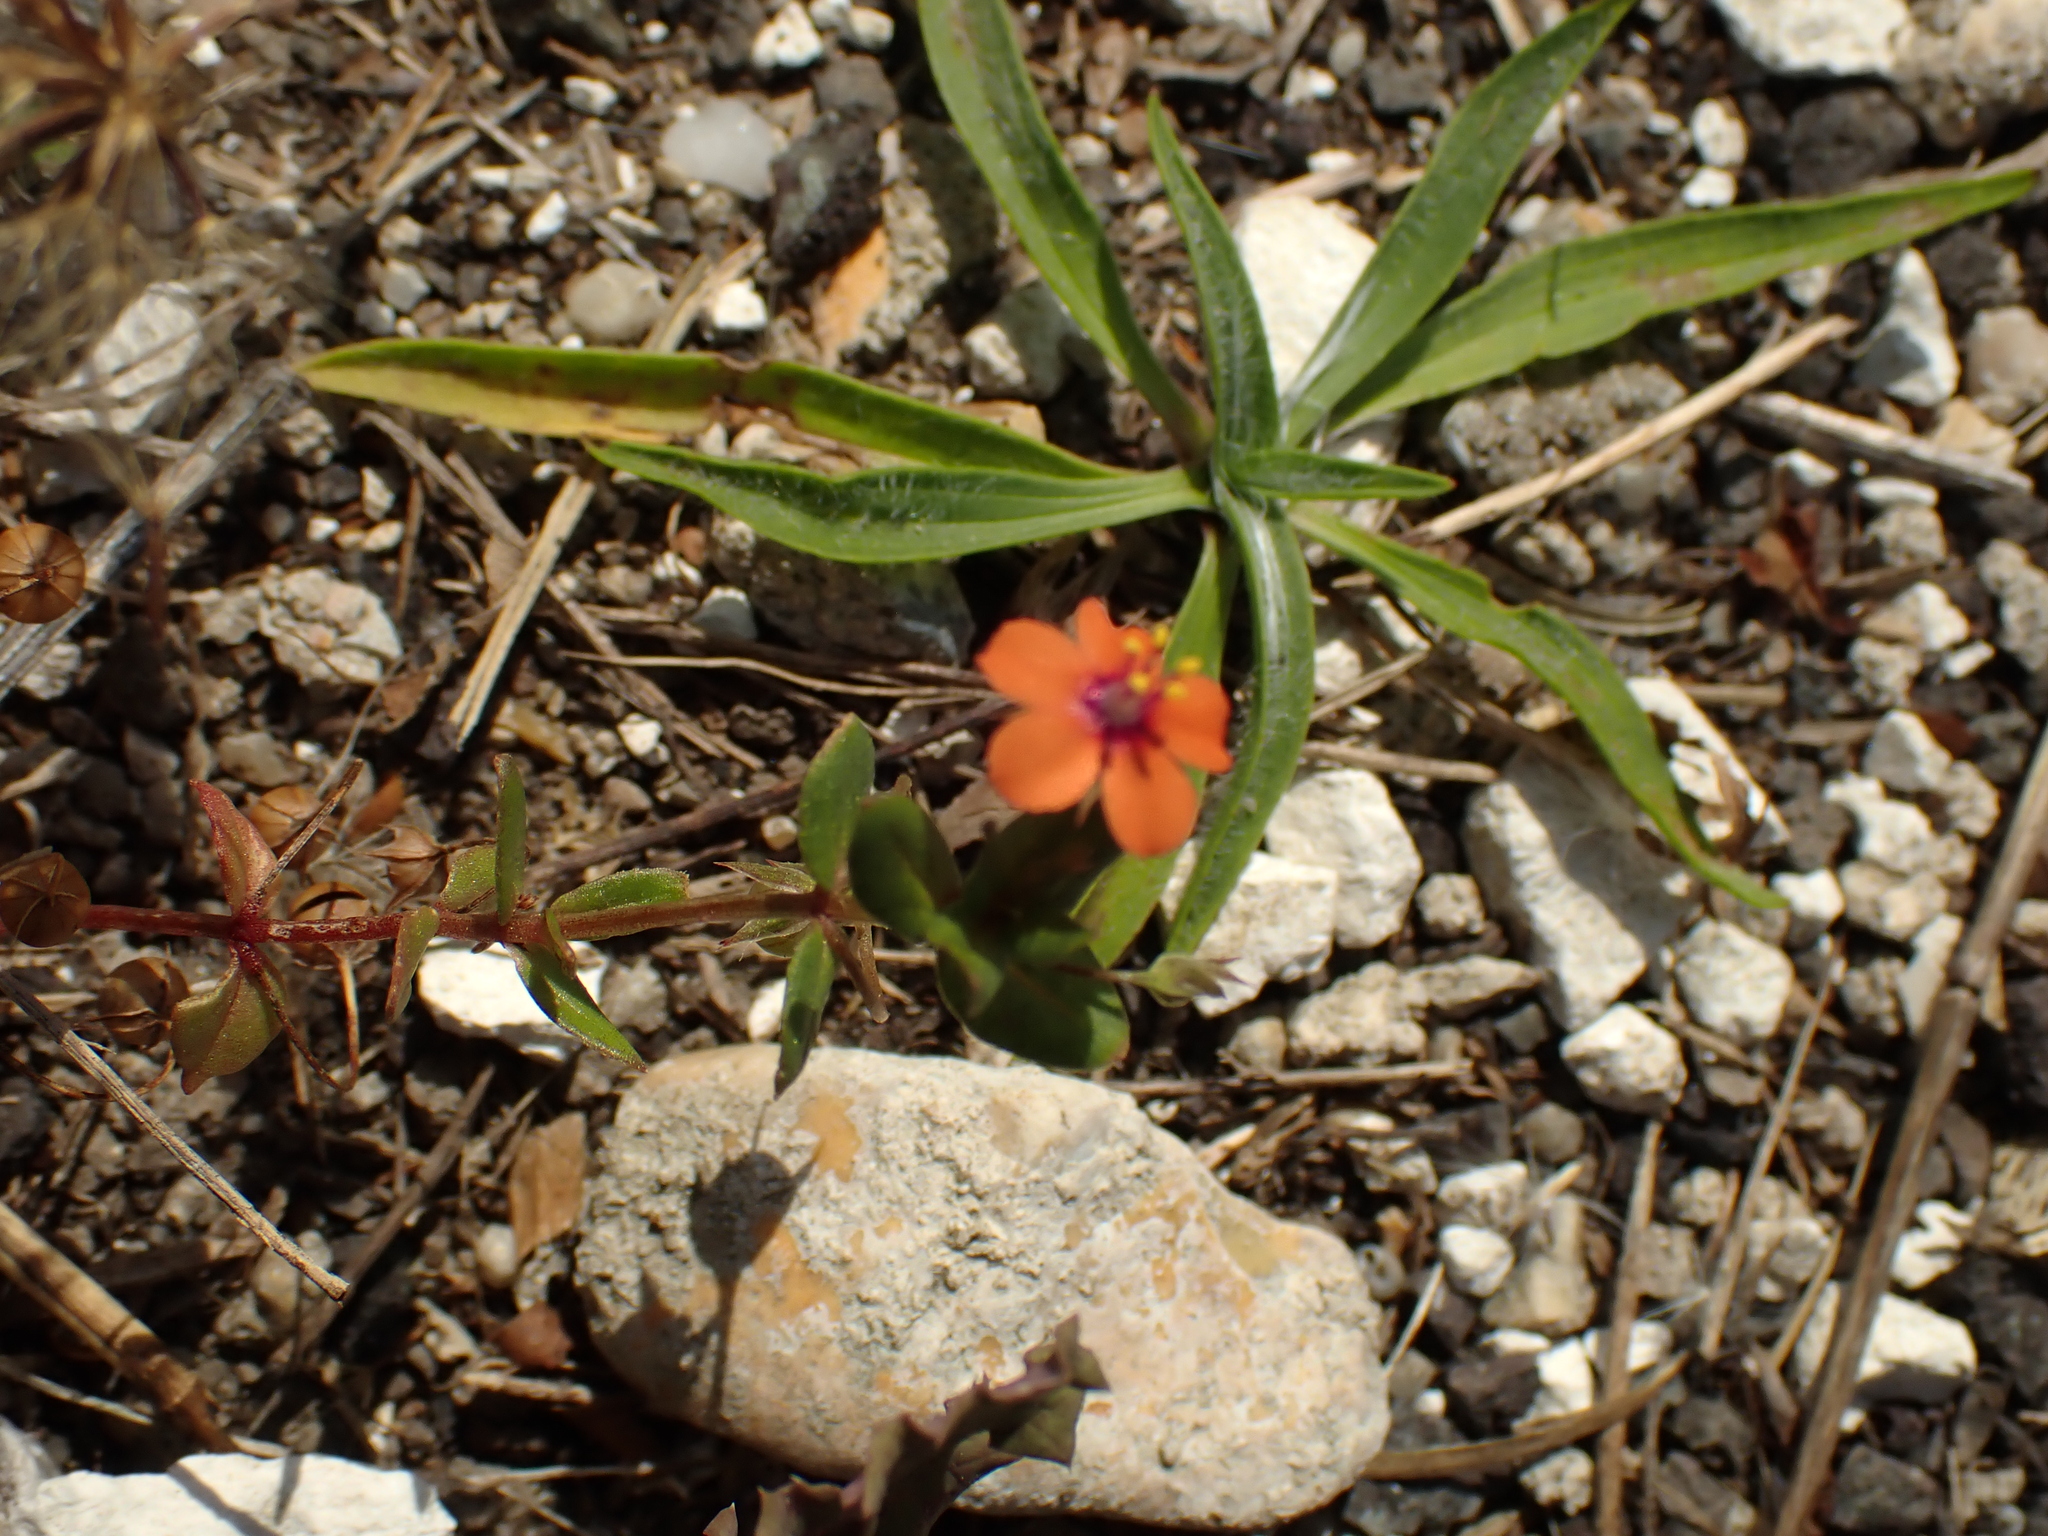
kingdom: Plantae
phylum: Tracheophyta
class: Magnoliopsida
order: Ericales
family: Primulaceae
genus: Lysimachia
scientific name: Lysimachia arvensis
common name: Scarlet pimpernel
